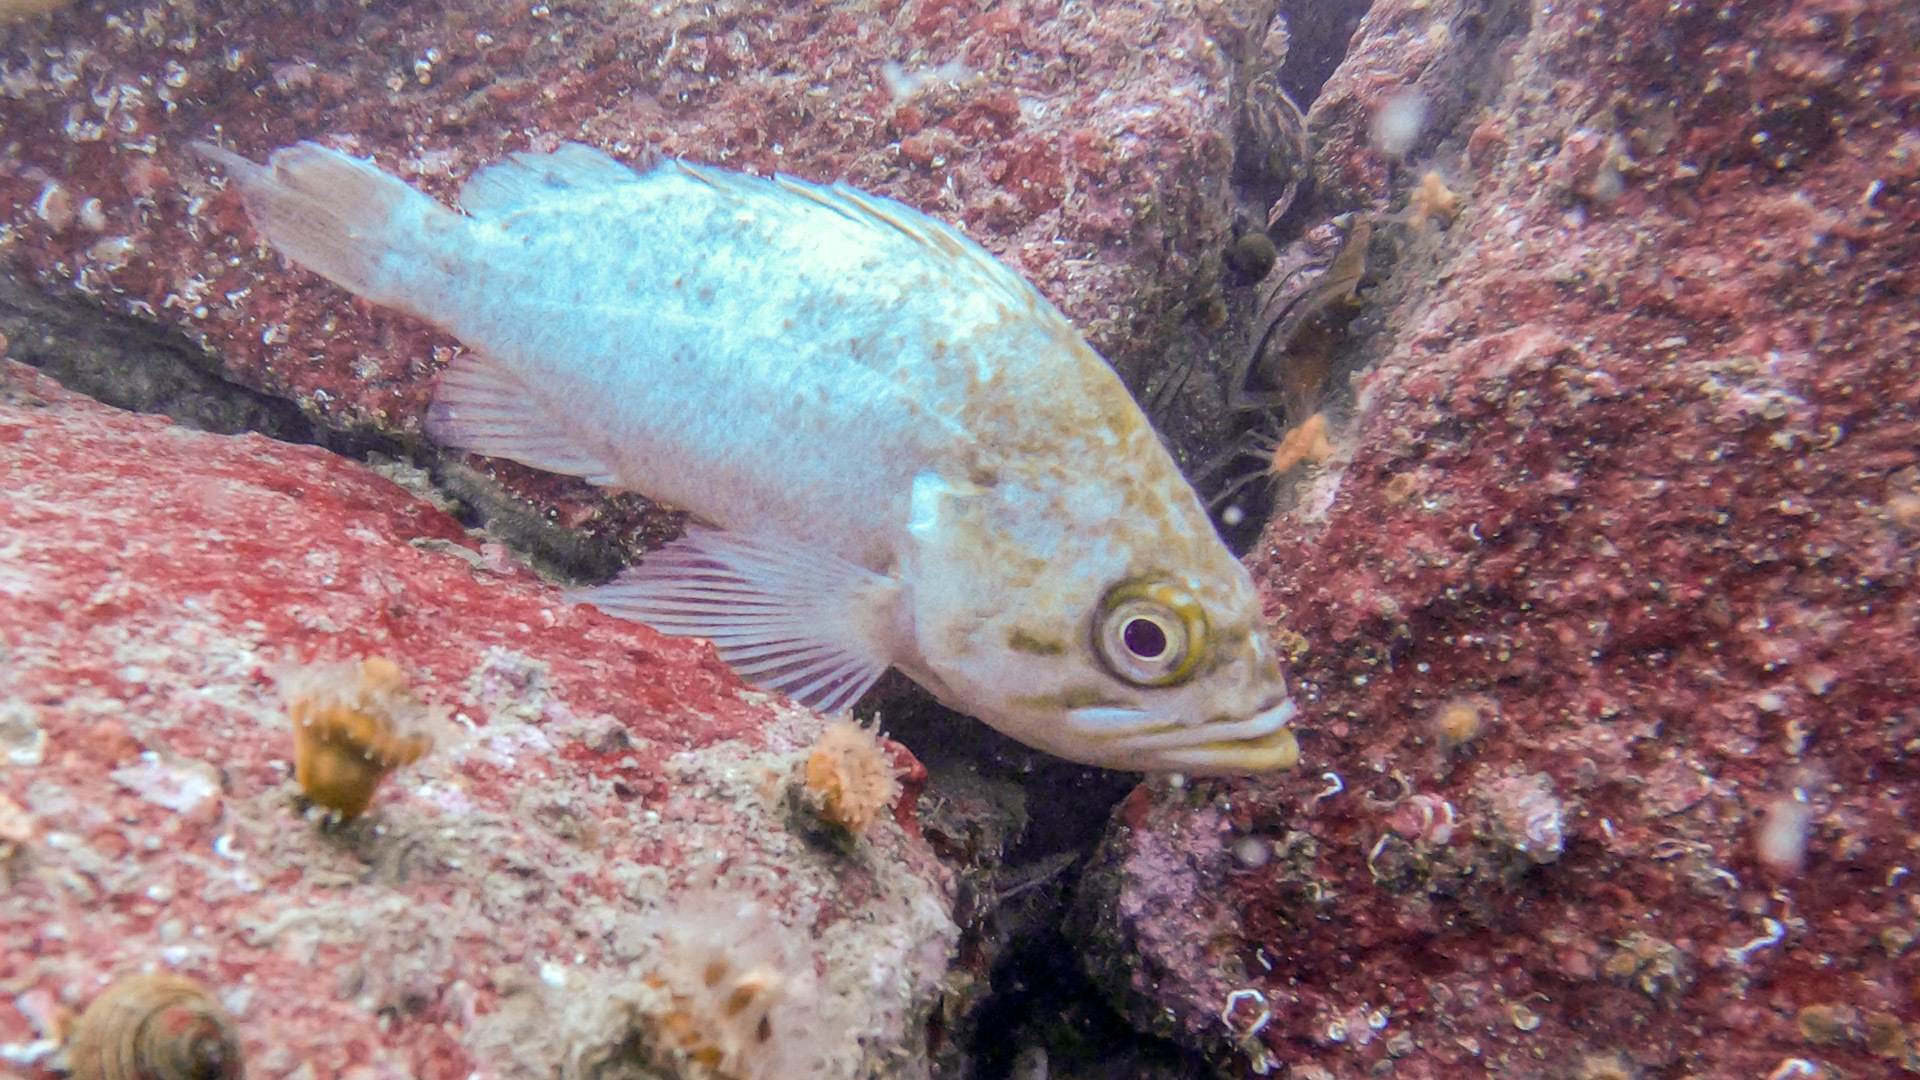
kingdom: Animalia
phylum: Chordata
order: Scorpaeniformes
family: Sebastidae
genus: Sebastes
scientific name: Sebastes atrovirens
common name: Kelp rockfish
